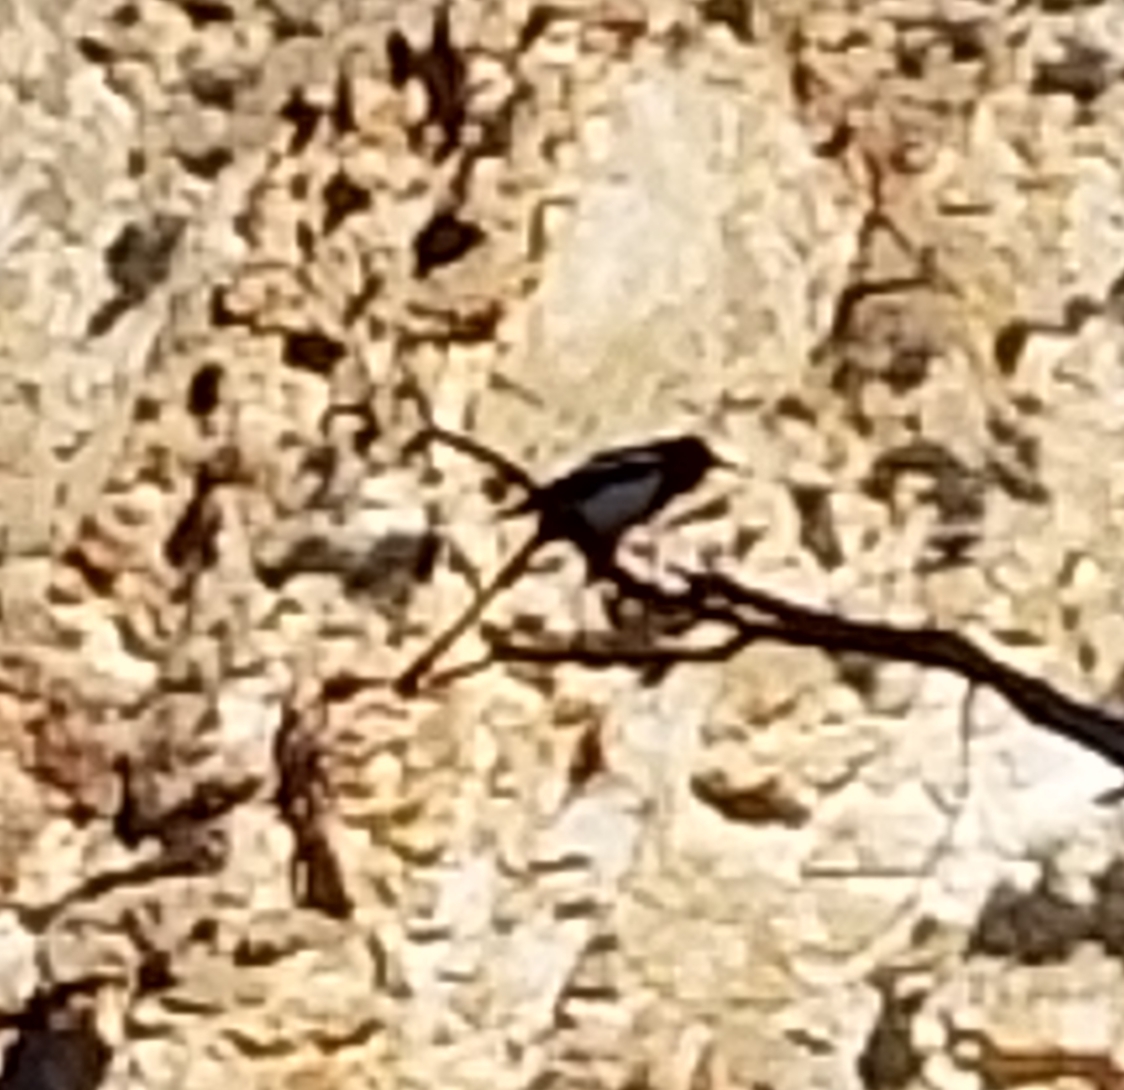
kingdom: Animalia
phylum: Chordata
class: Aves
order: Passeriformes
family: Corvidae
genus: Pica
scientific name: Pica hudsonia
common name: Black-billed magpie
